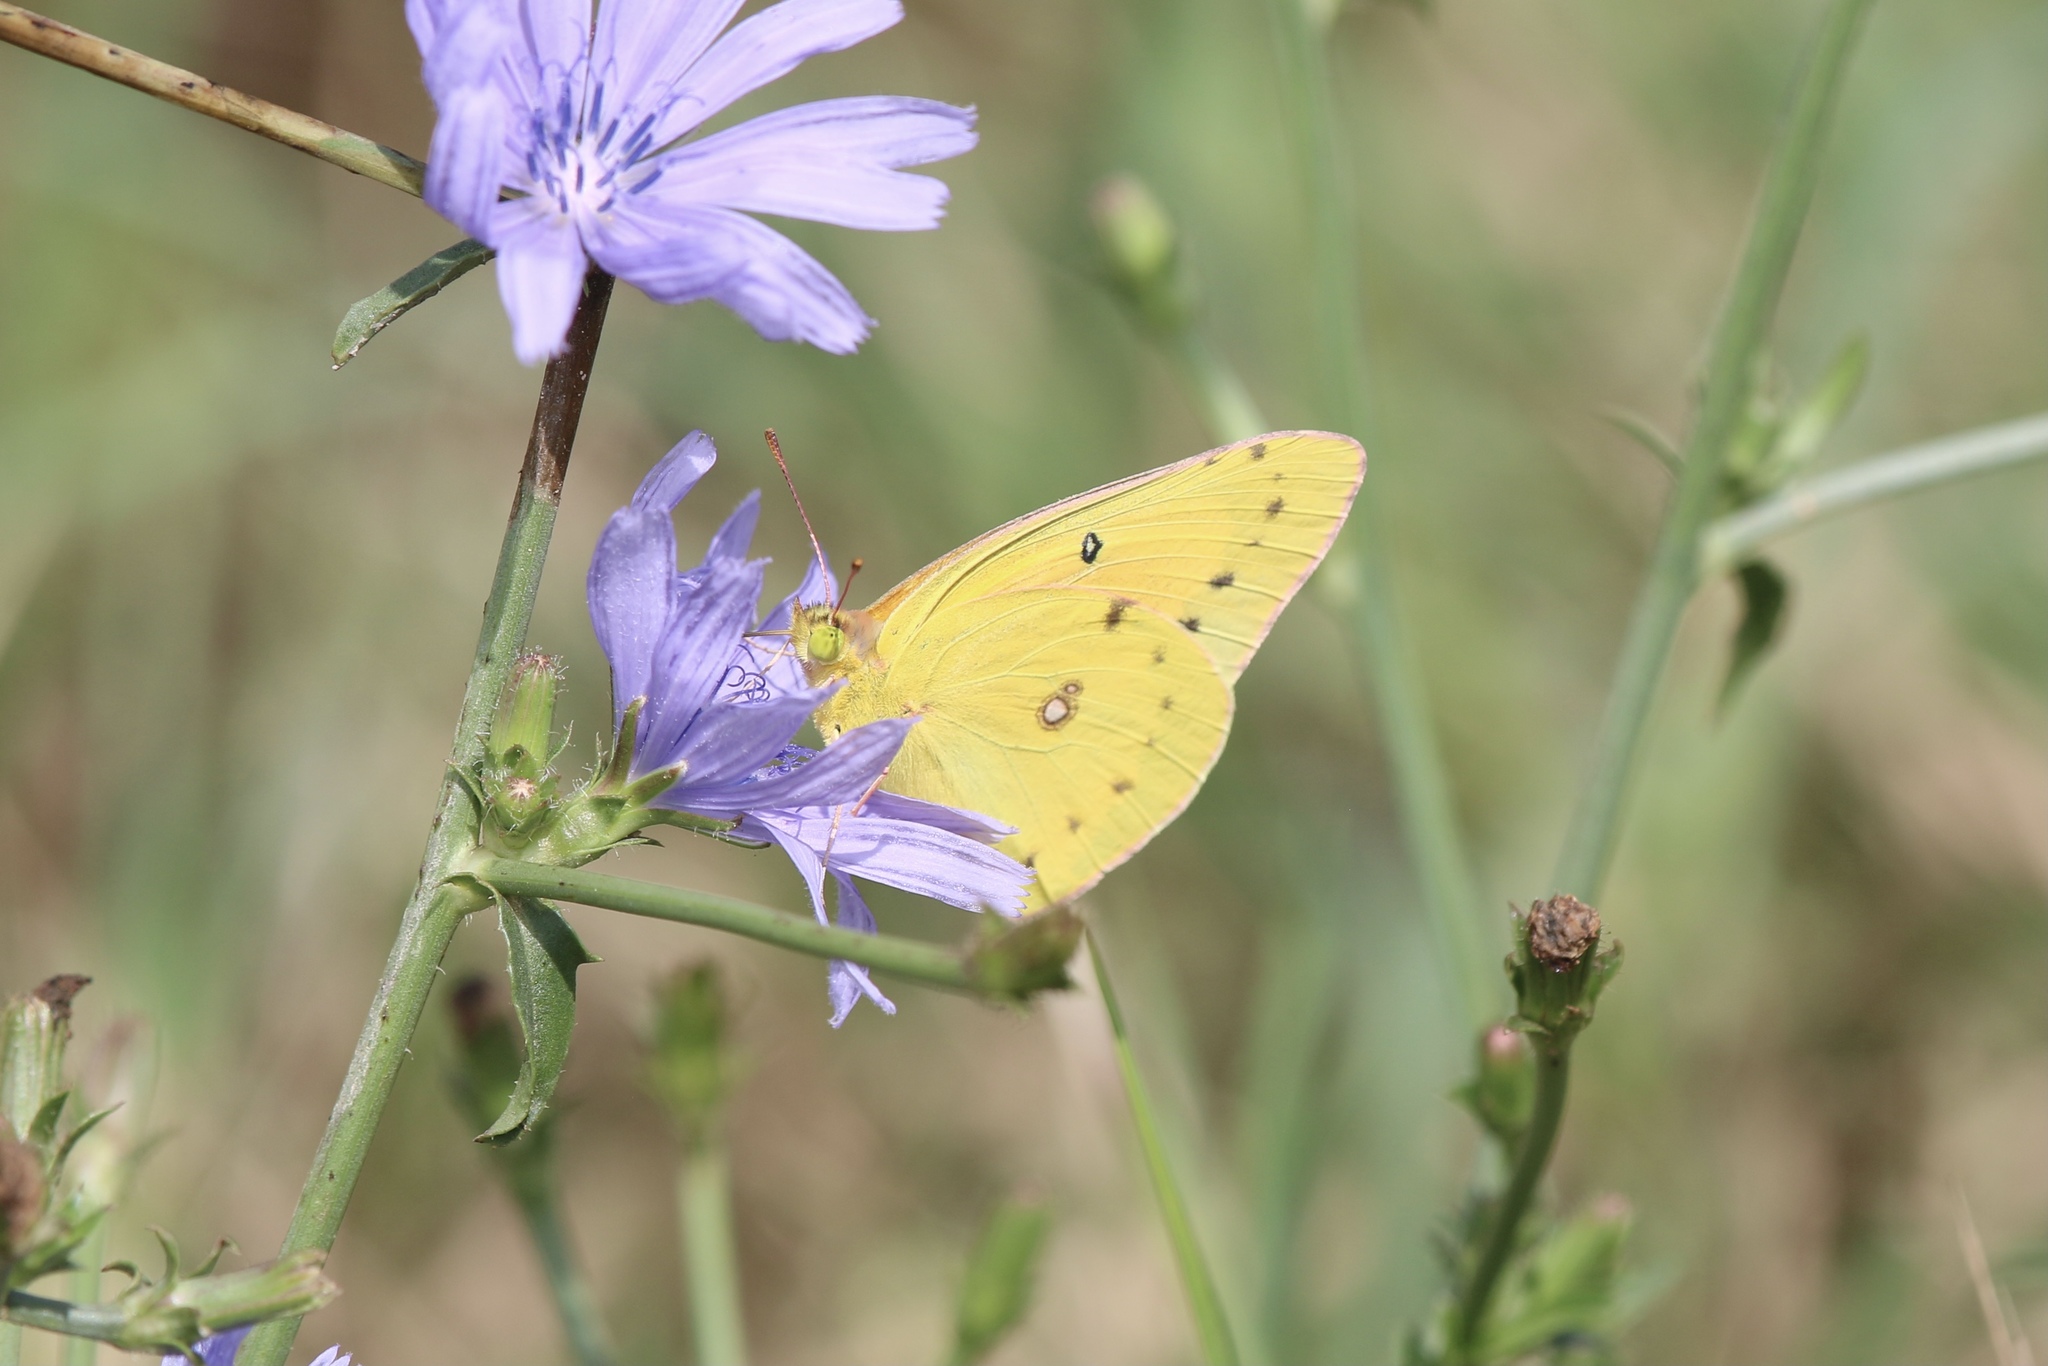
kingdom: Animalia
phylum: Arthropoda
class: Insecta
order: Lepidoptera
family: Pieridae
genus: Colias
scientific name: Colias eurytheme
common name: Alfalfa butterfly
